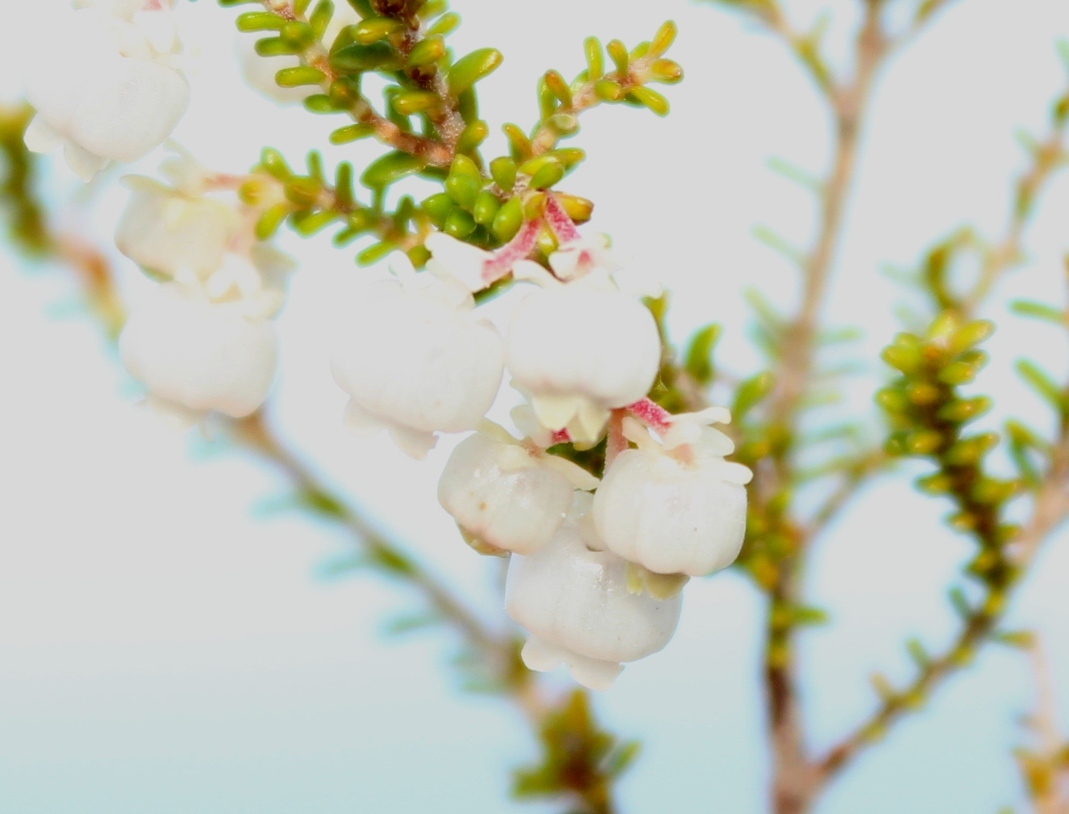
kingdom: Plantae
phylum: Tracheophyta
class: Magnoliopsida
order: Ericales
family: Ericaceae
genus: Erica
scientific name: Erica formosa
